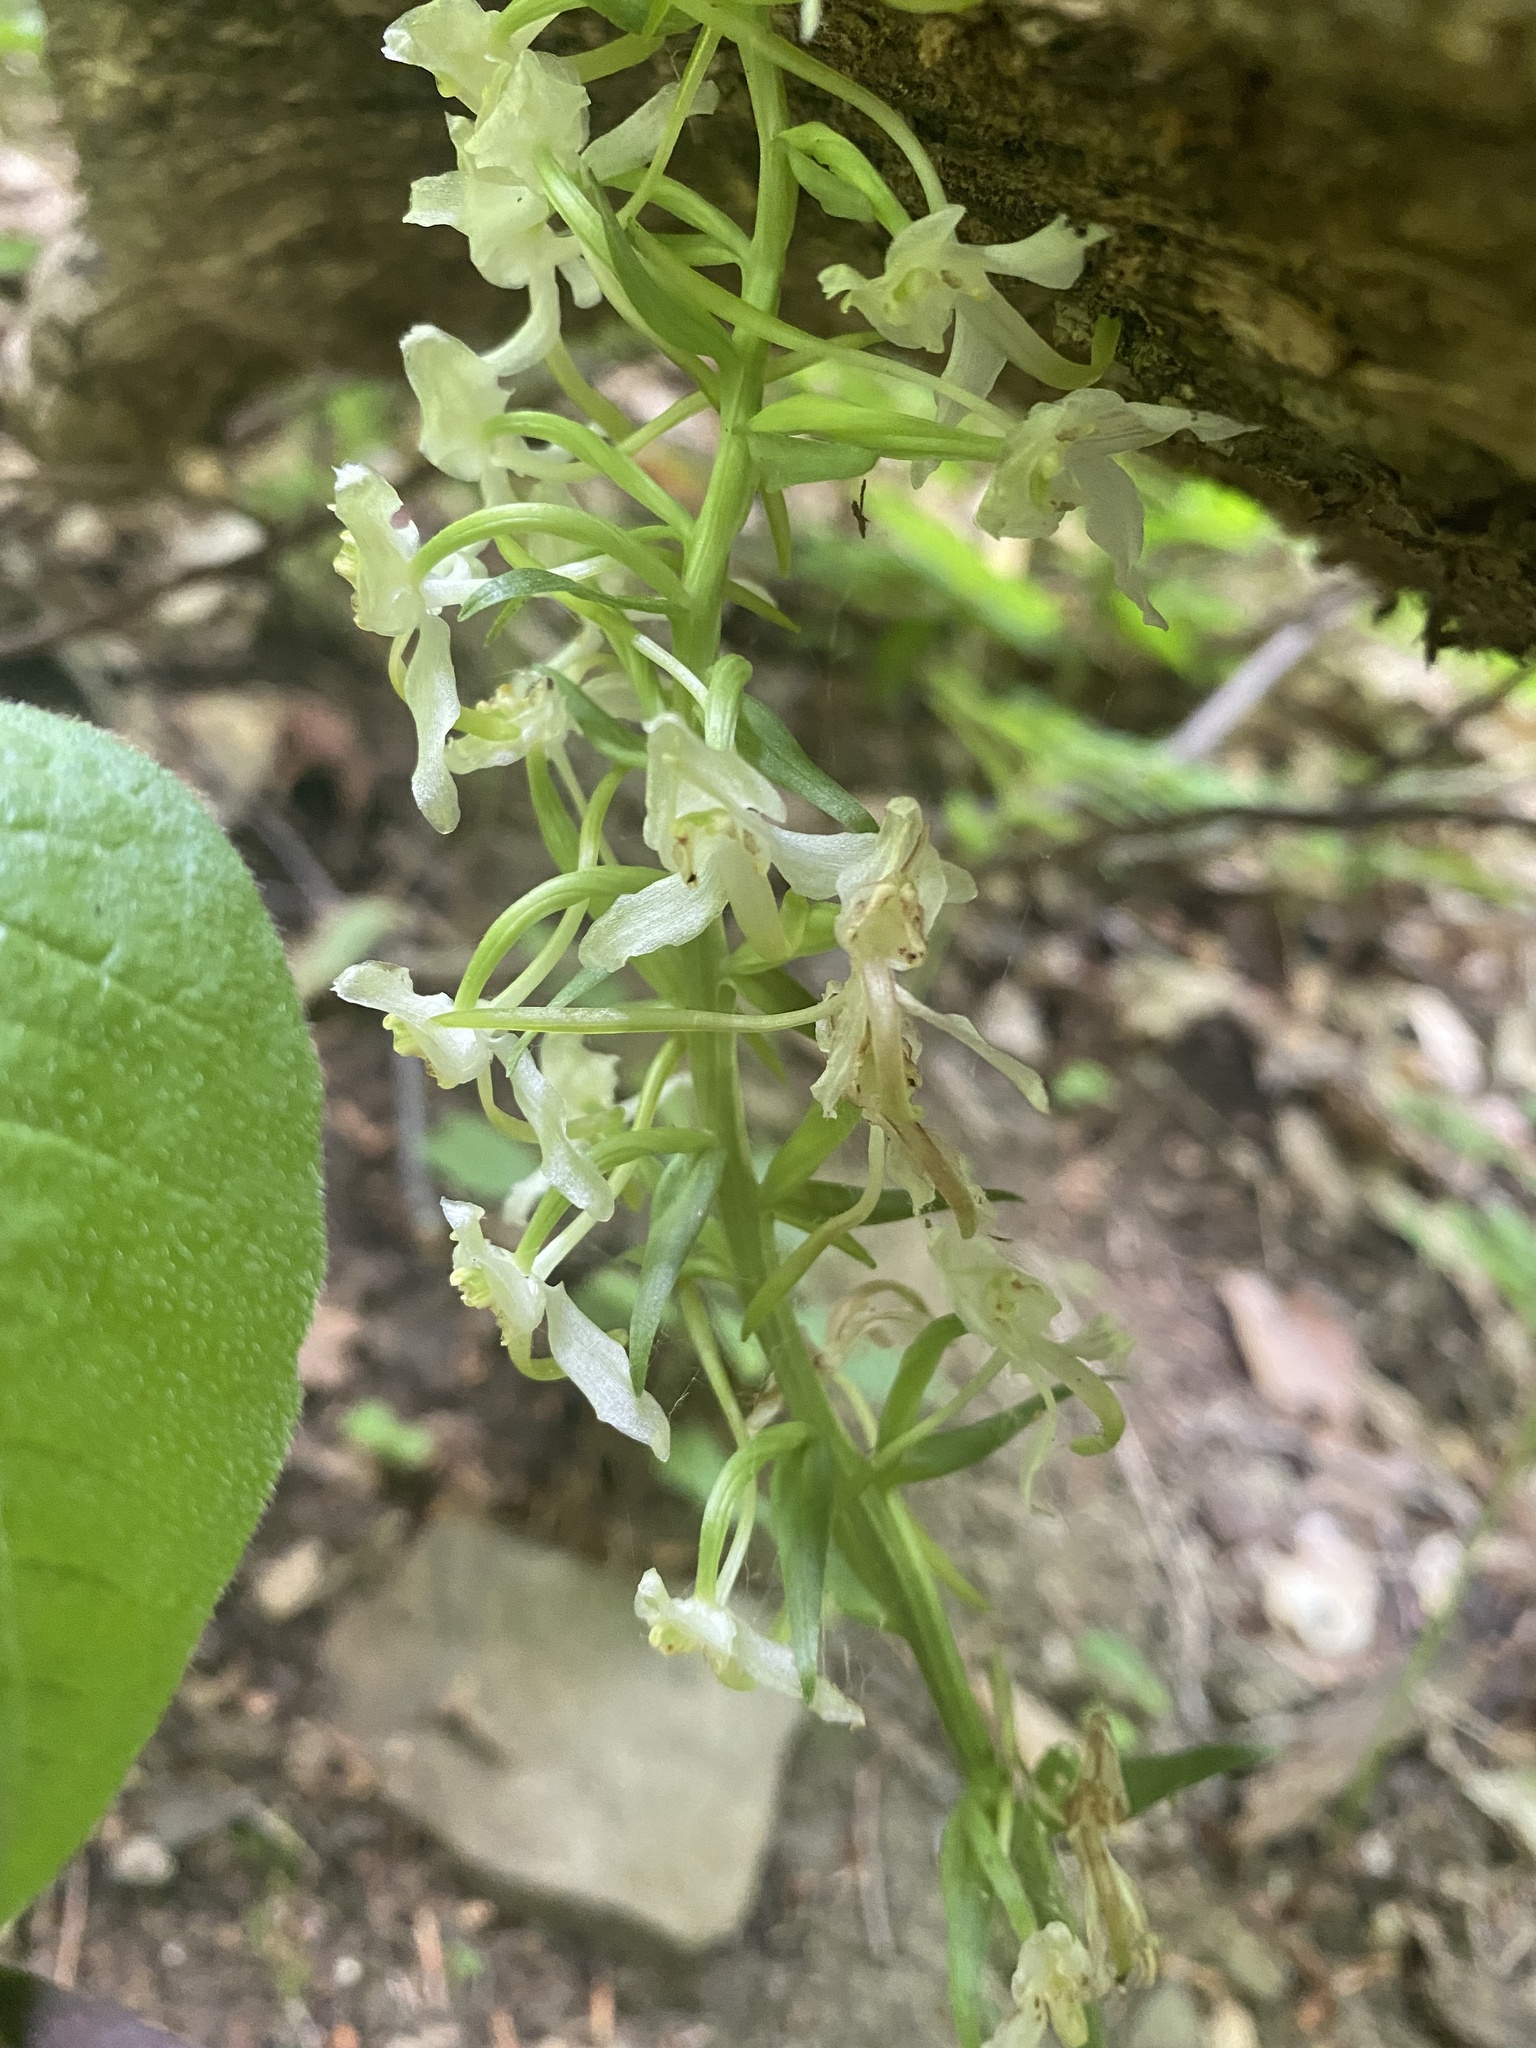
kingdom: Plantae
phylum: Tracheophyta
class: Liliopsida
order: Asparagales
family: Orchidaceae
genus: Platanthera
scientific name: Platanthera chlorantha
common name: Greater butterfly-orchid
